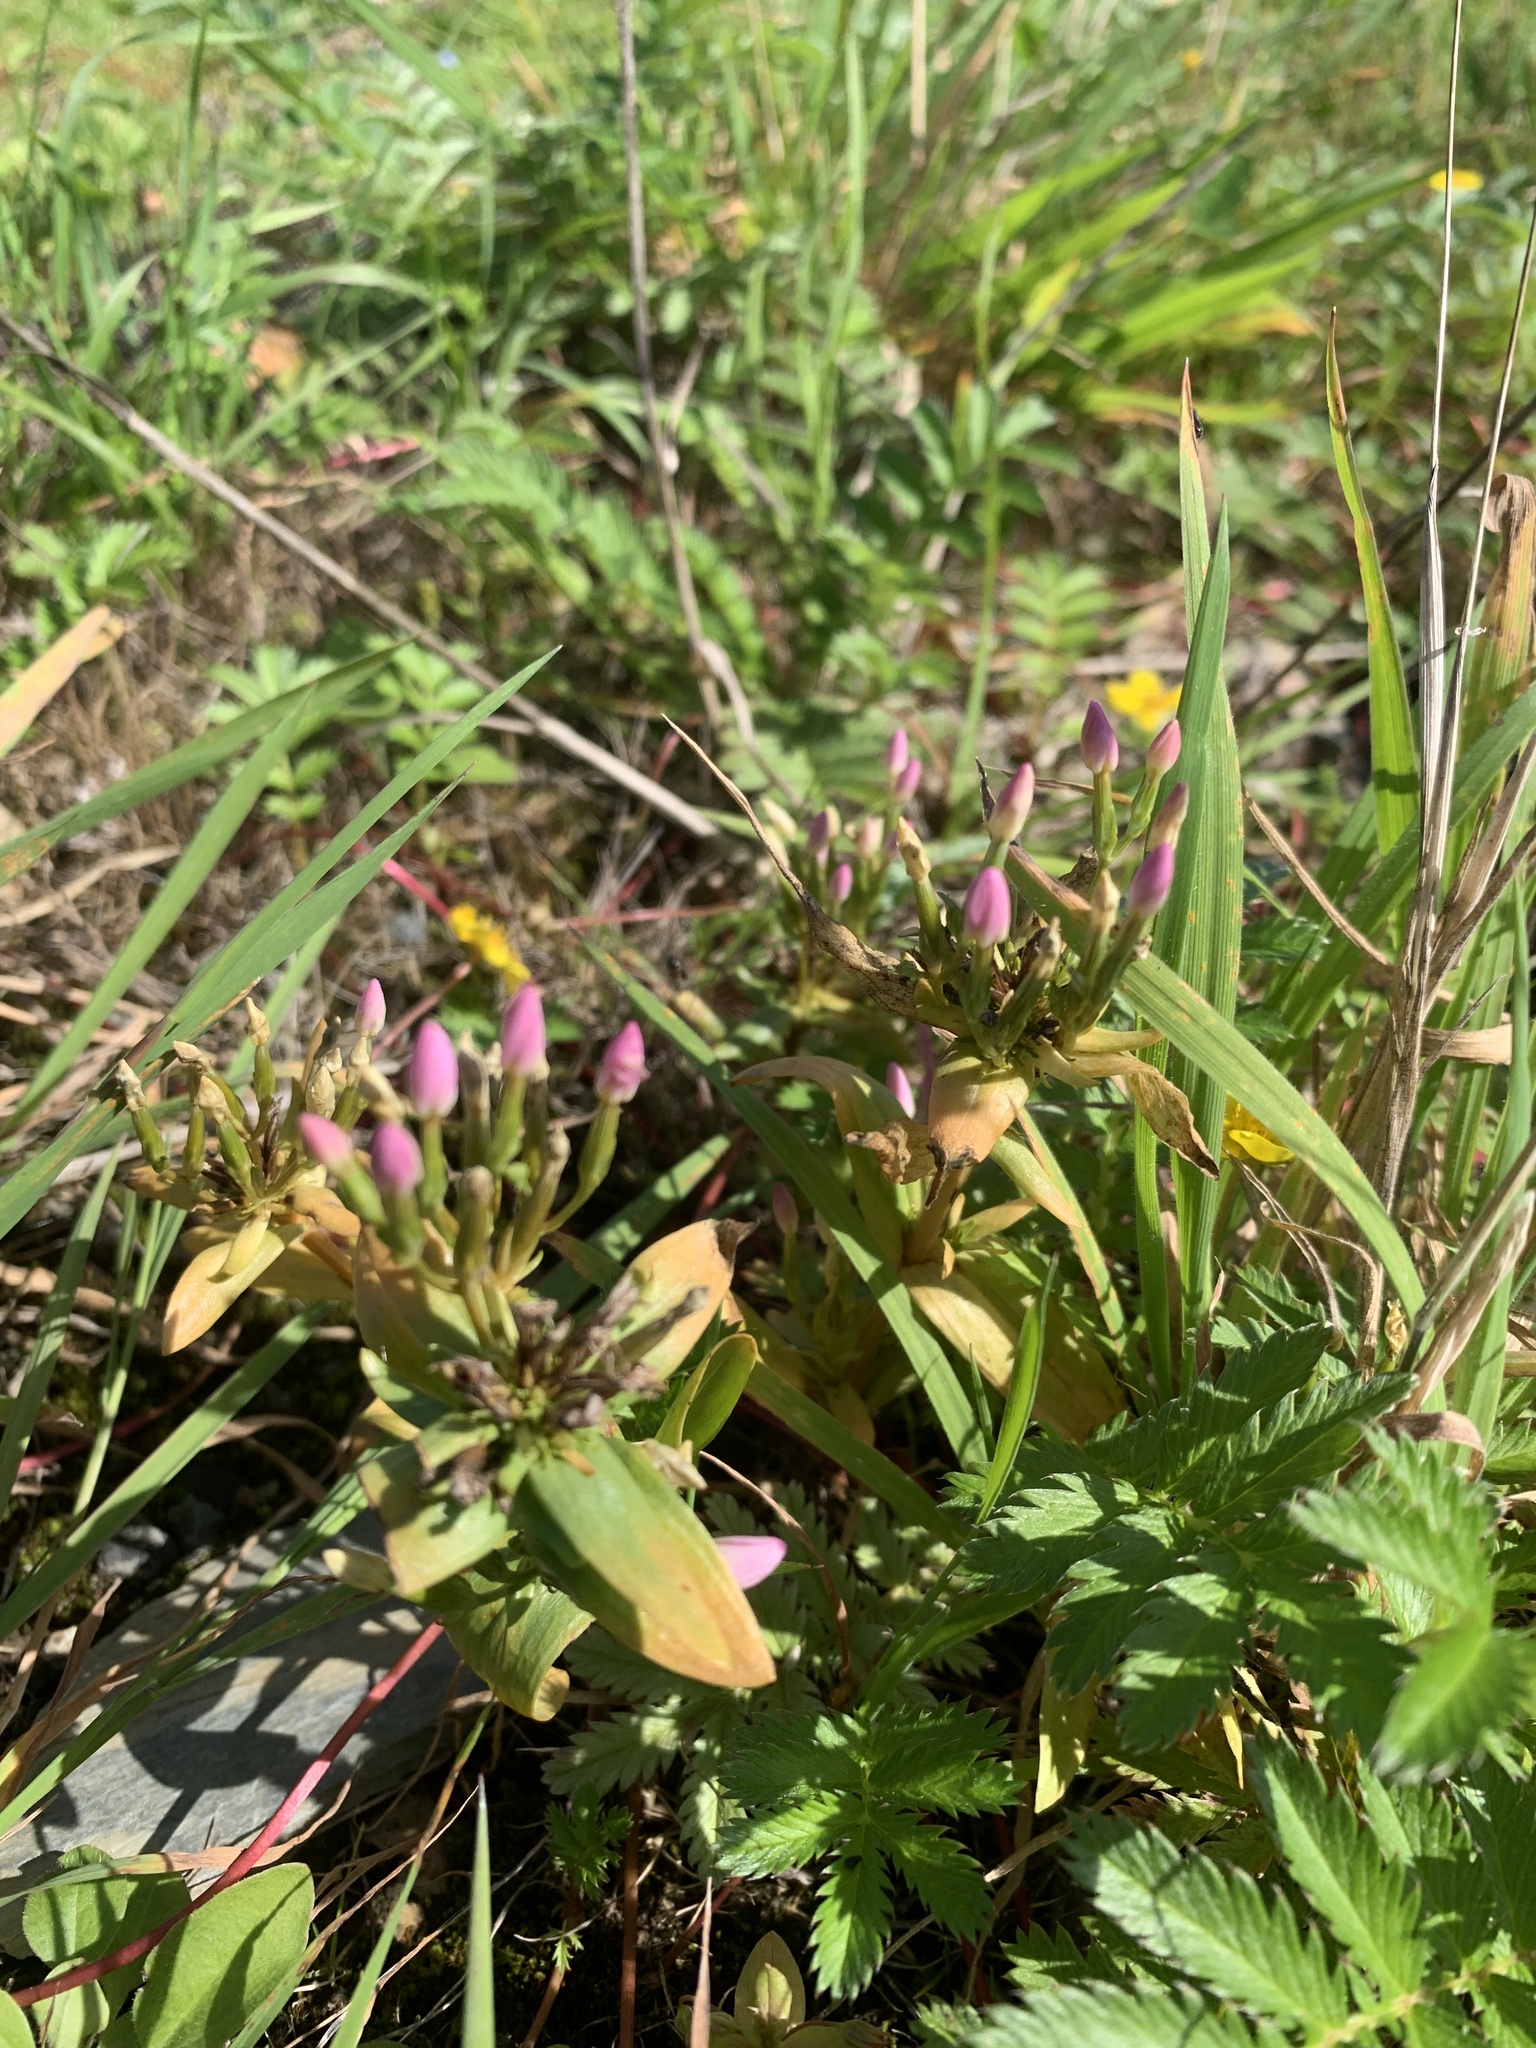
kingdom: Plantae
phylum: Tracheophyta
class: Magnoliopsida
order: Gentianales
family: Gentianaceae
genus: Centaurium
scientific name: Centaurium erythraea
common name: Common centaury
